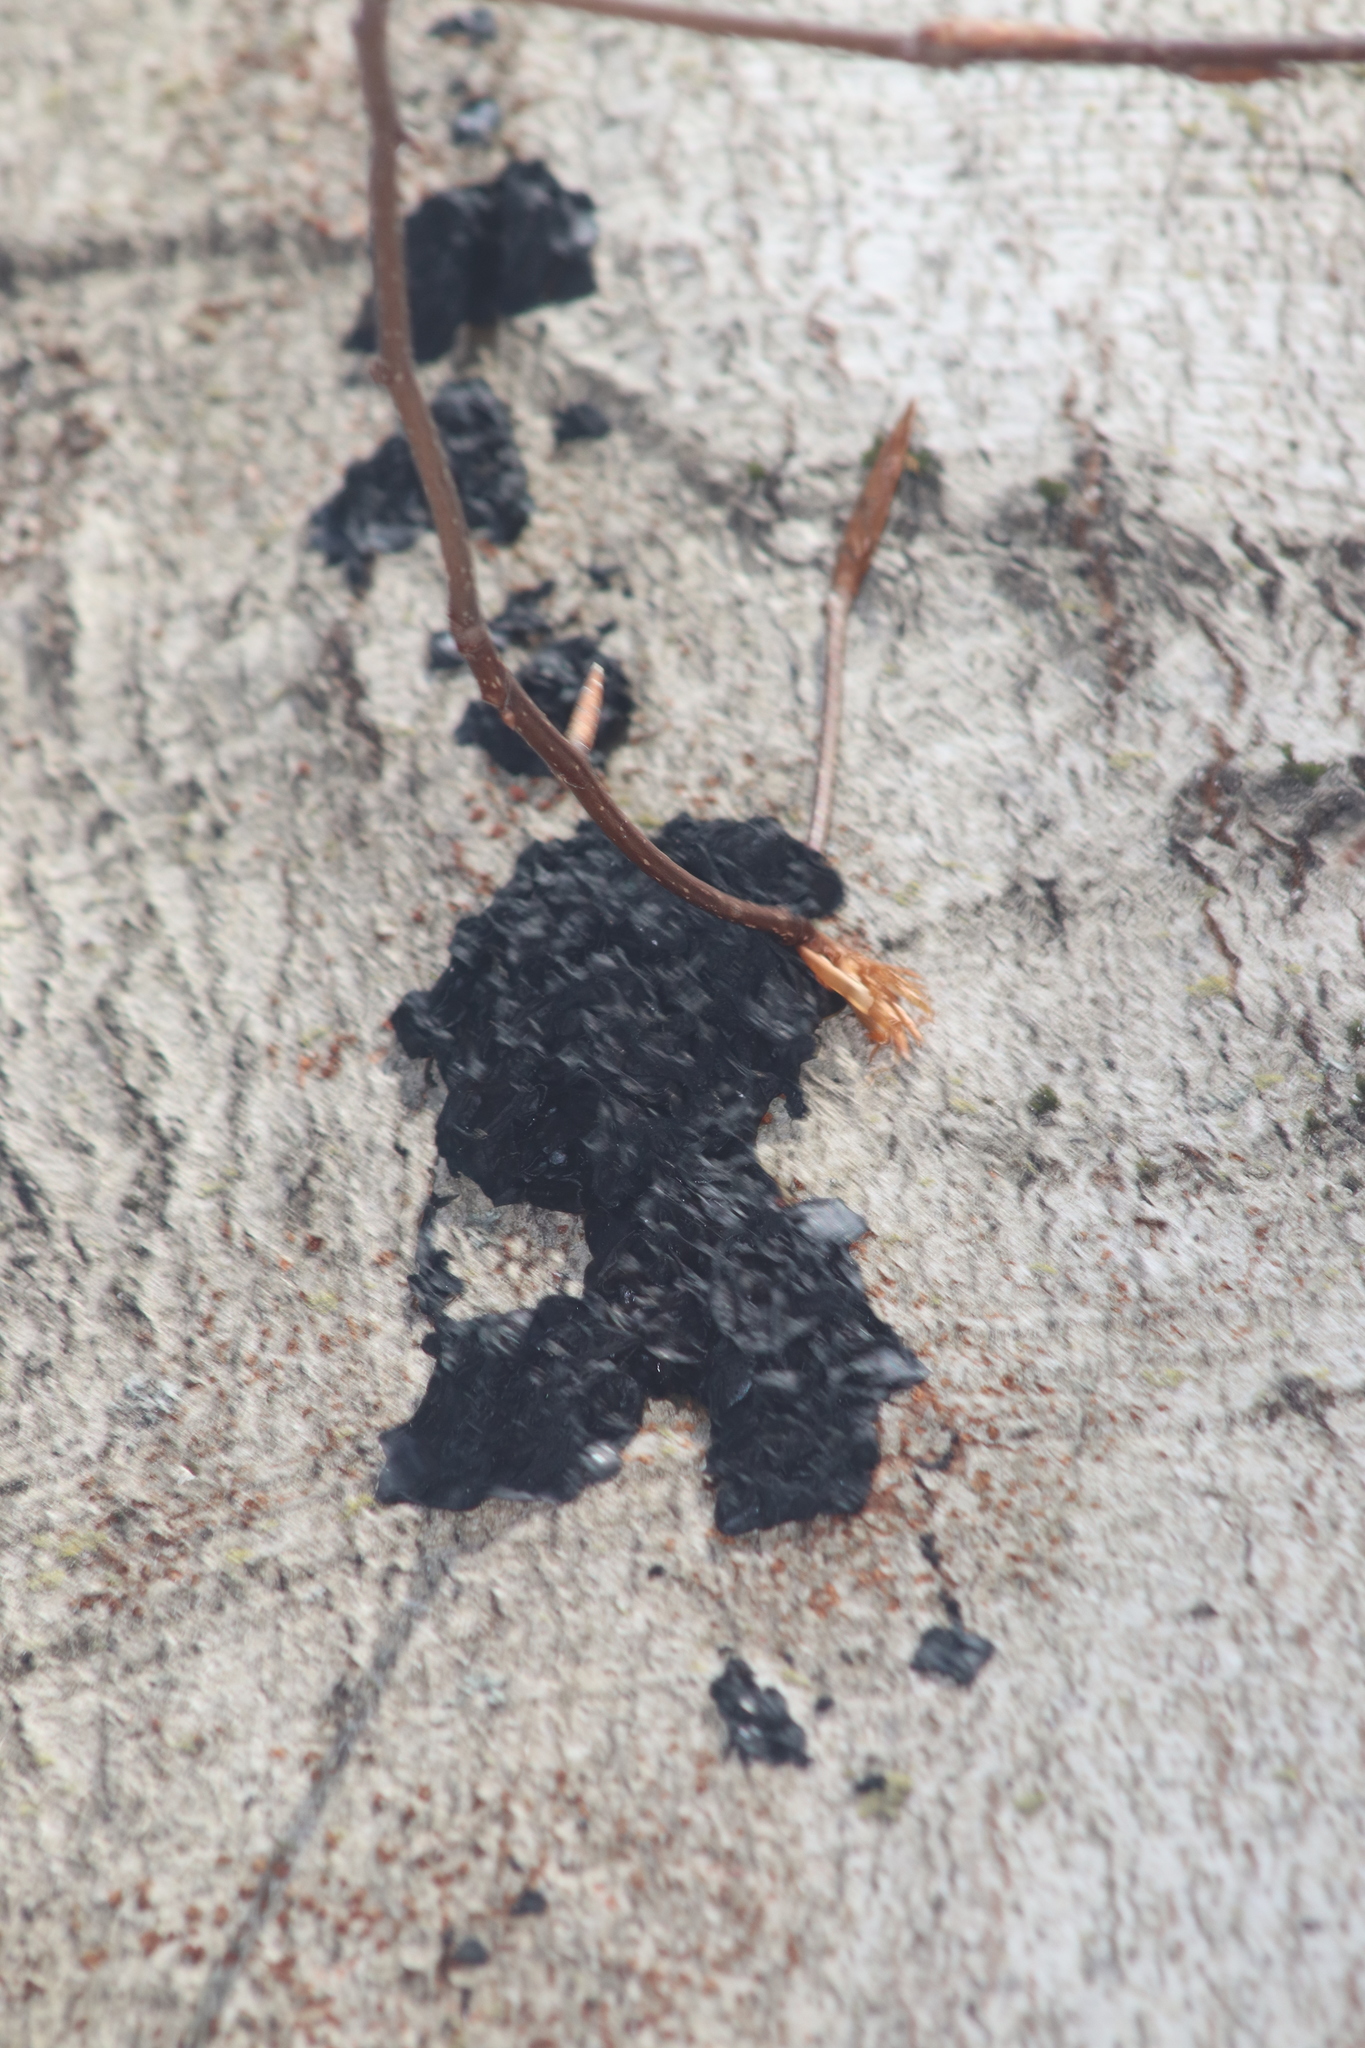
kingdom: Fungi
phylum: Basidiomycota
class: Agaricomycetes
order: Auriculariales
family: Auriculariaceae
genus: Exidia
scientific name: Exidia glandulosa
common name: Witches' butter
